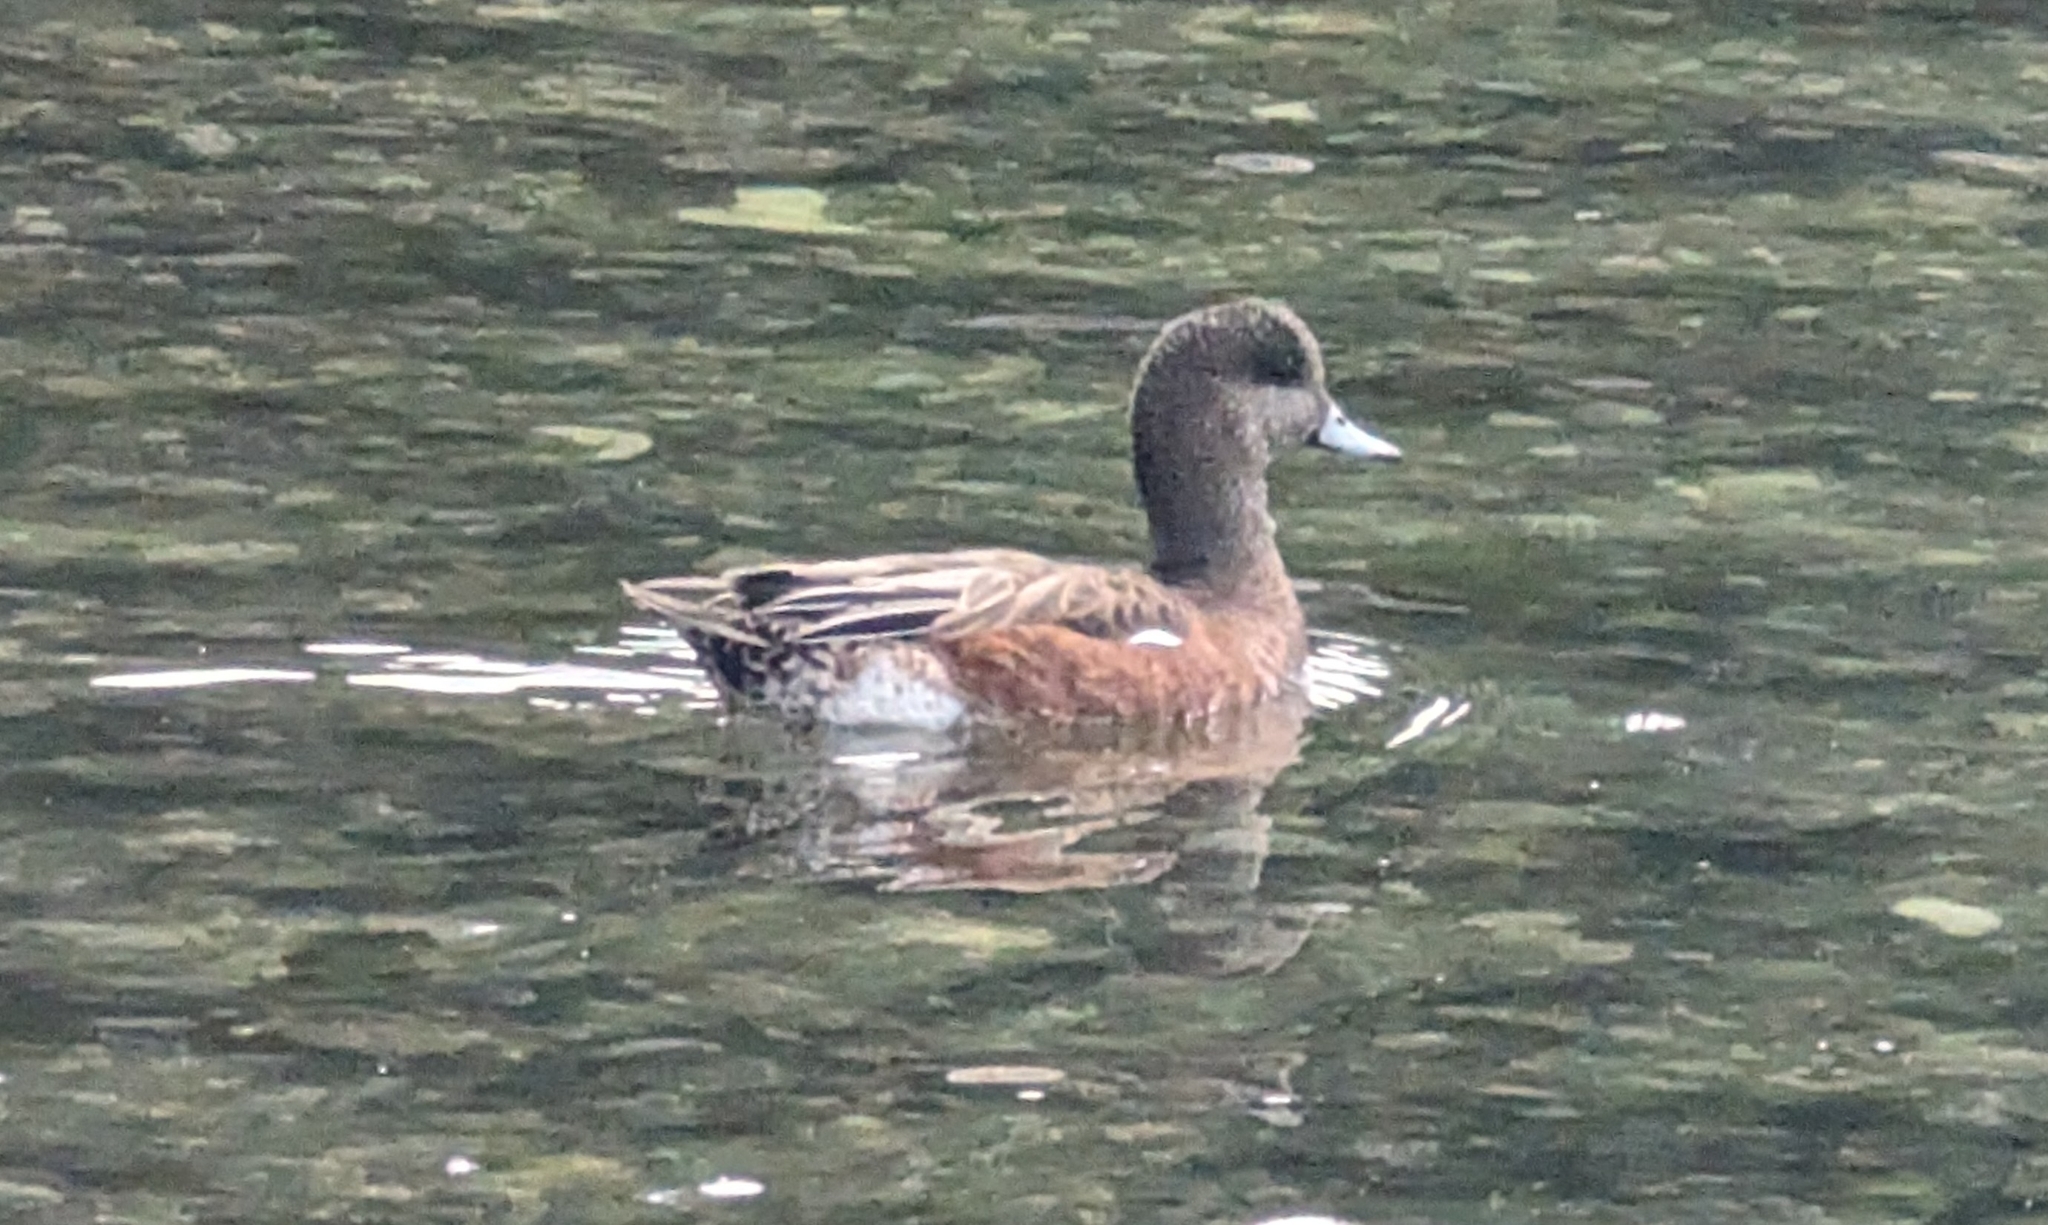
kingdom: Animalia
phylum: Chordata
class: Aves
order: Anseriformes
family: Anatidae
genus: Mareca
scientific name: Mareca americana
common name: American wigeon
